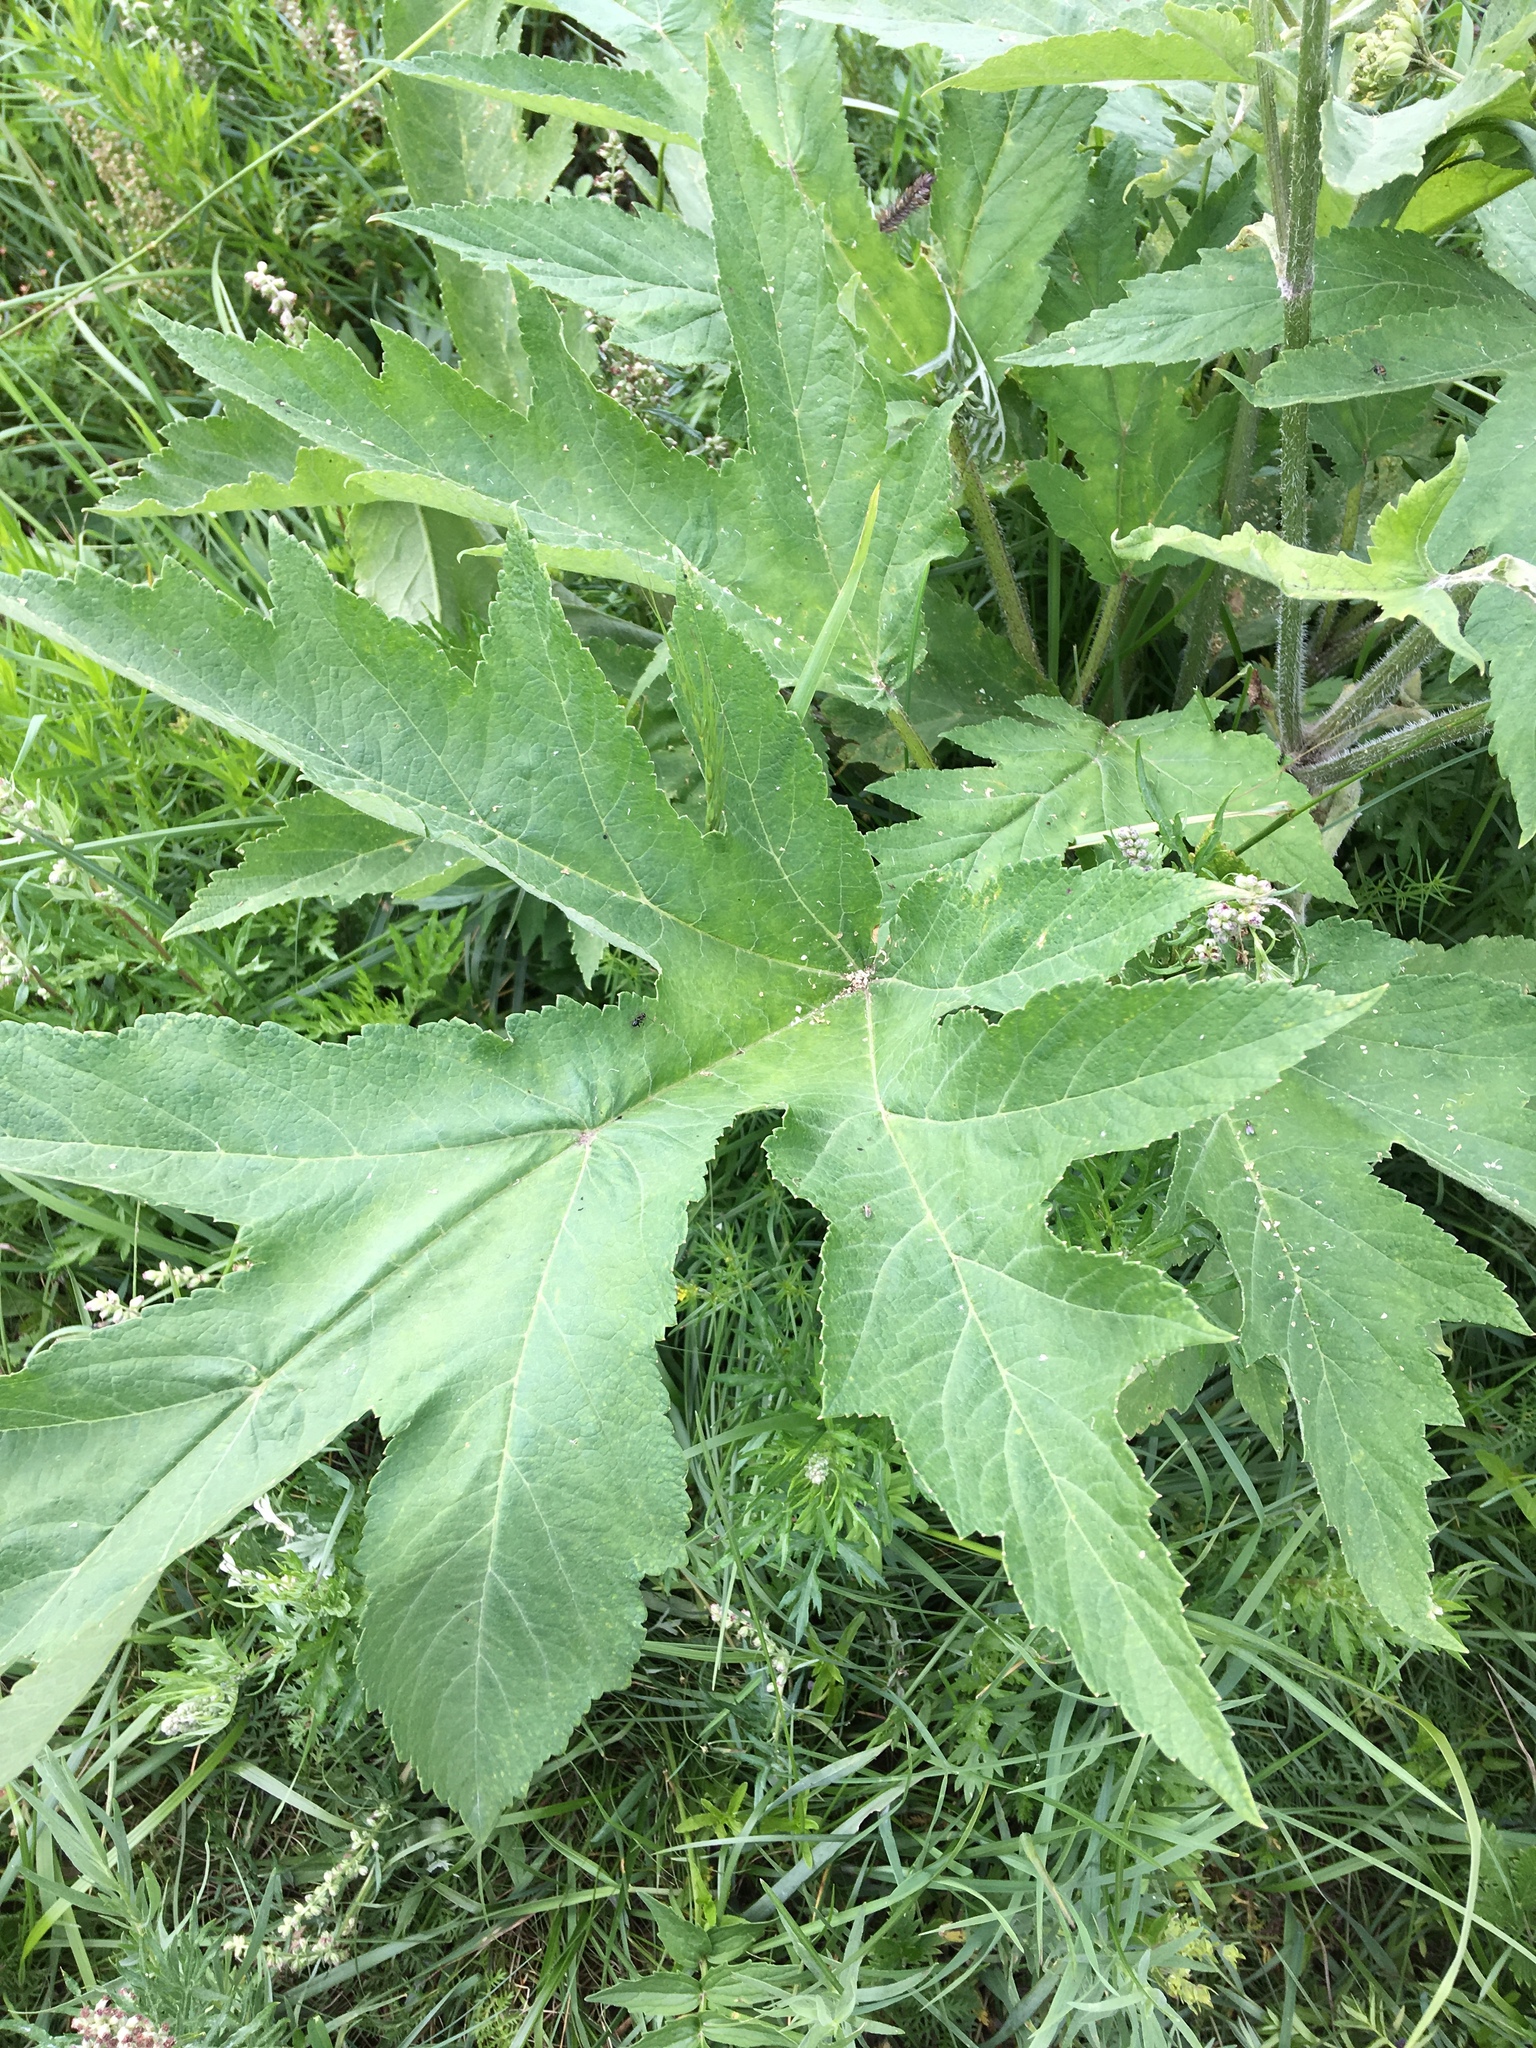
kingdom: Plantae
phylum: Tracheophyta
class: Magnoliopsida
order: Apiales
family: Apiaceae
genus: Heracleum
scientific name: Heracleum dissectum
